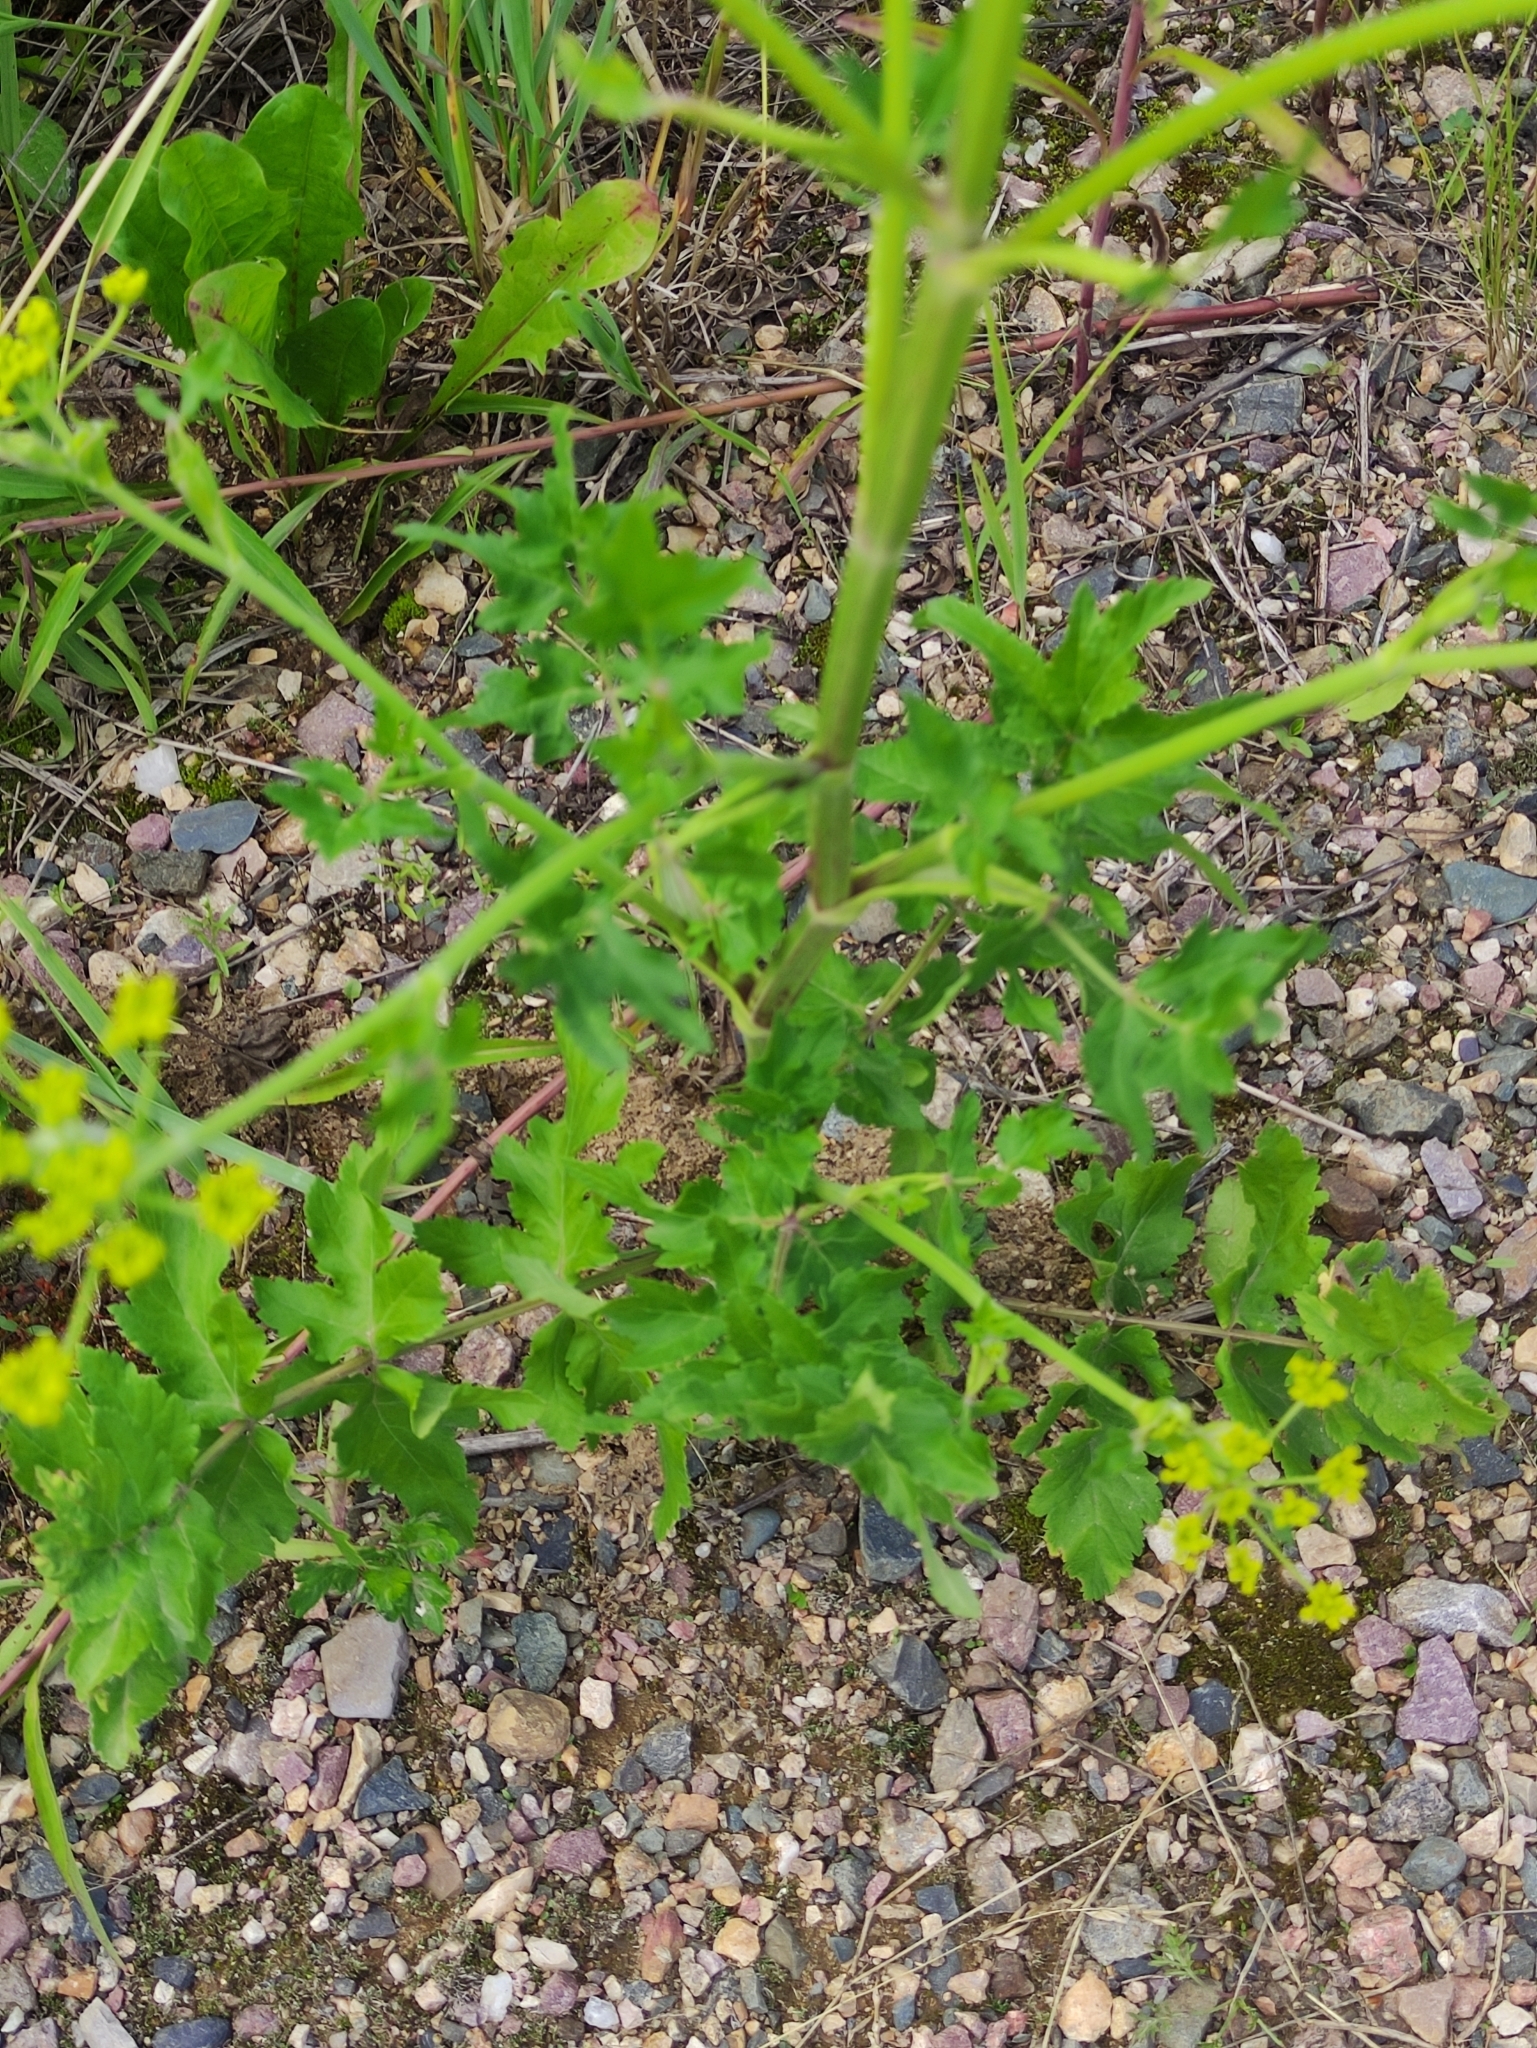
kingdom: Plantae
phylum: Tracheophyta
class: Magnoliopsida
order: Apiales
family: Apiaceae
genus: Pastinaca
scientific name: Pastinaca sativa
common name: Wild parsnip
